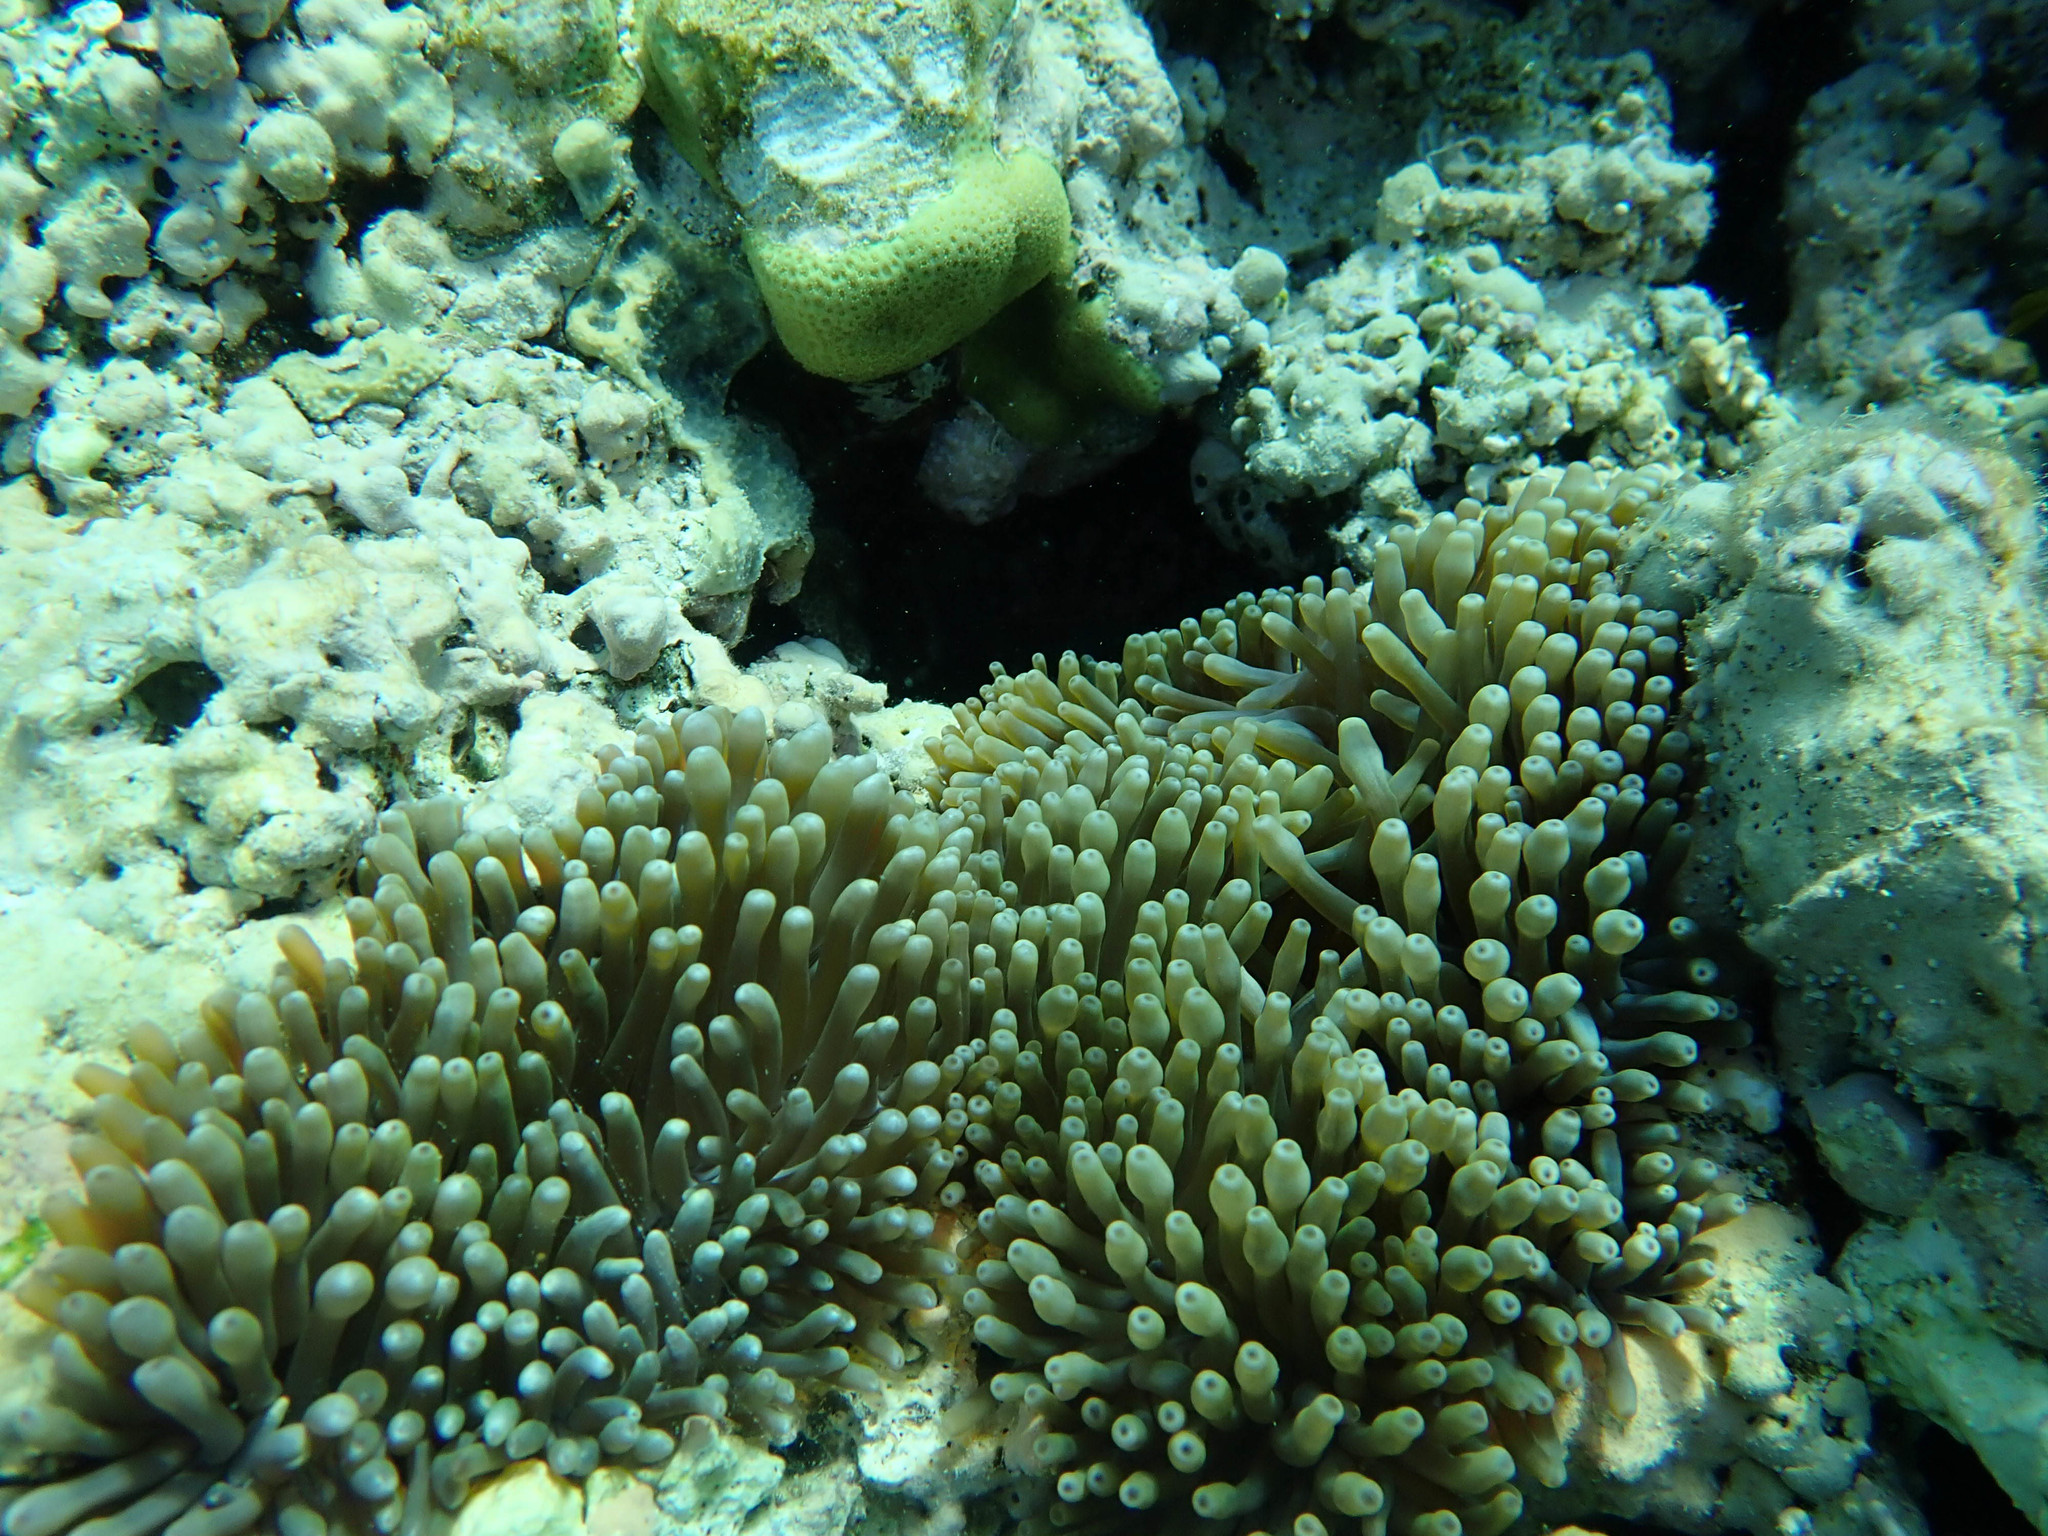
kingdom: Animalia
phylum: Cnidaria
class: Anthozoa
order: Actiniaria
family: Actiniidae
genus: Entacmaea
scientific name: Entacmaea quadricolor
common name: Bulb tentacle sea anemone
